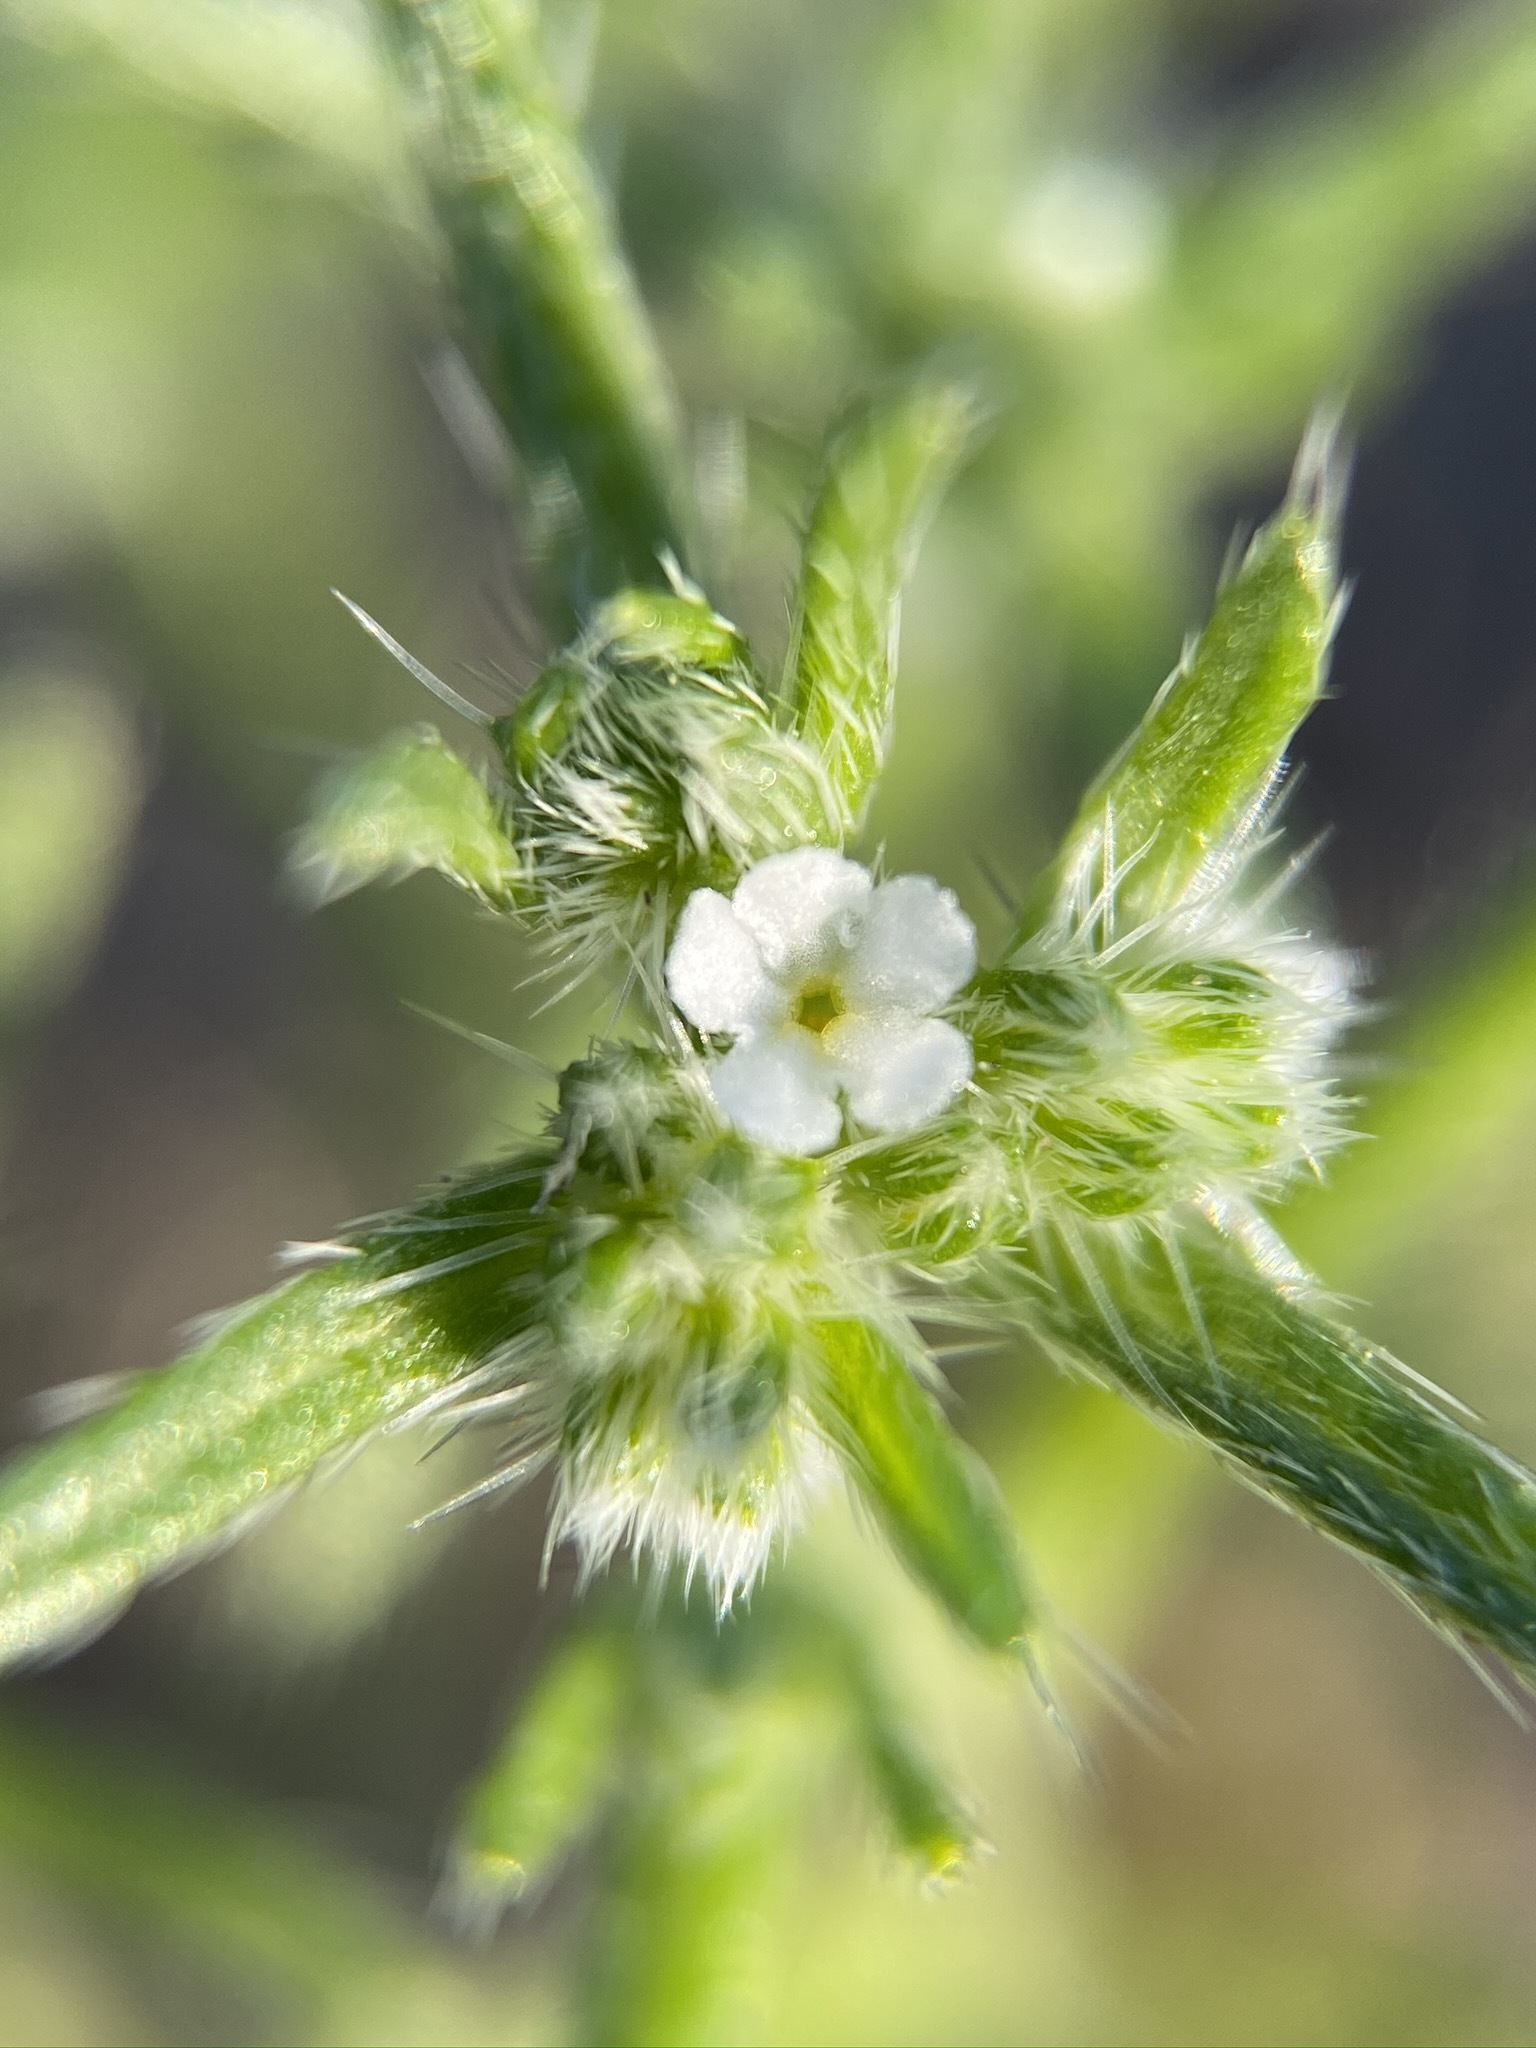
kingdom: Plantae
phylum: Tracheophyta
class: Magnoliopsida
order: Boraginales
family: Boraginaceae
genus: Cryptantha
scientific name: Cryptantha maritima
